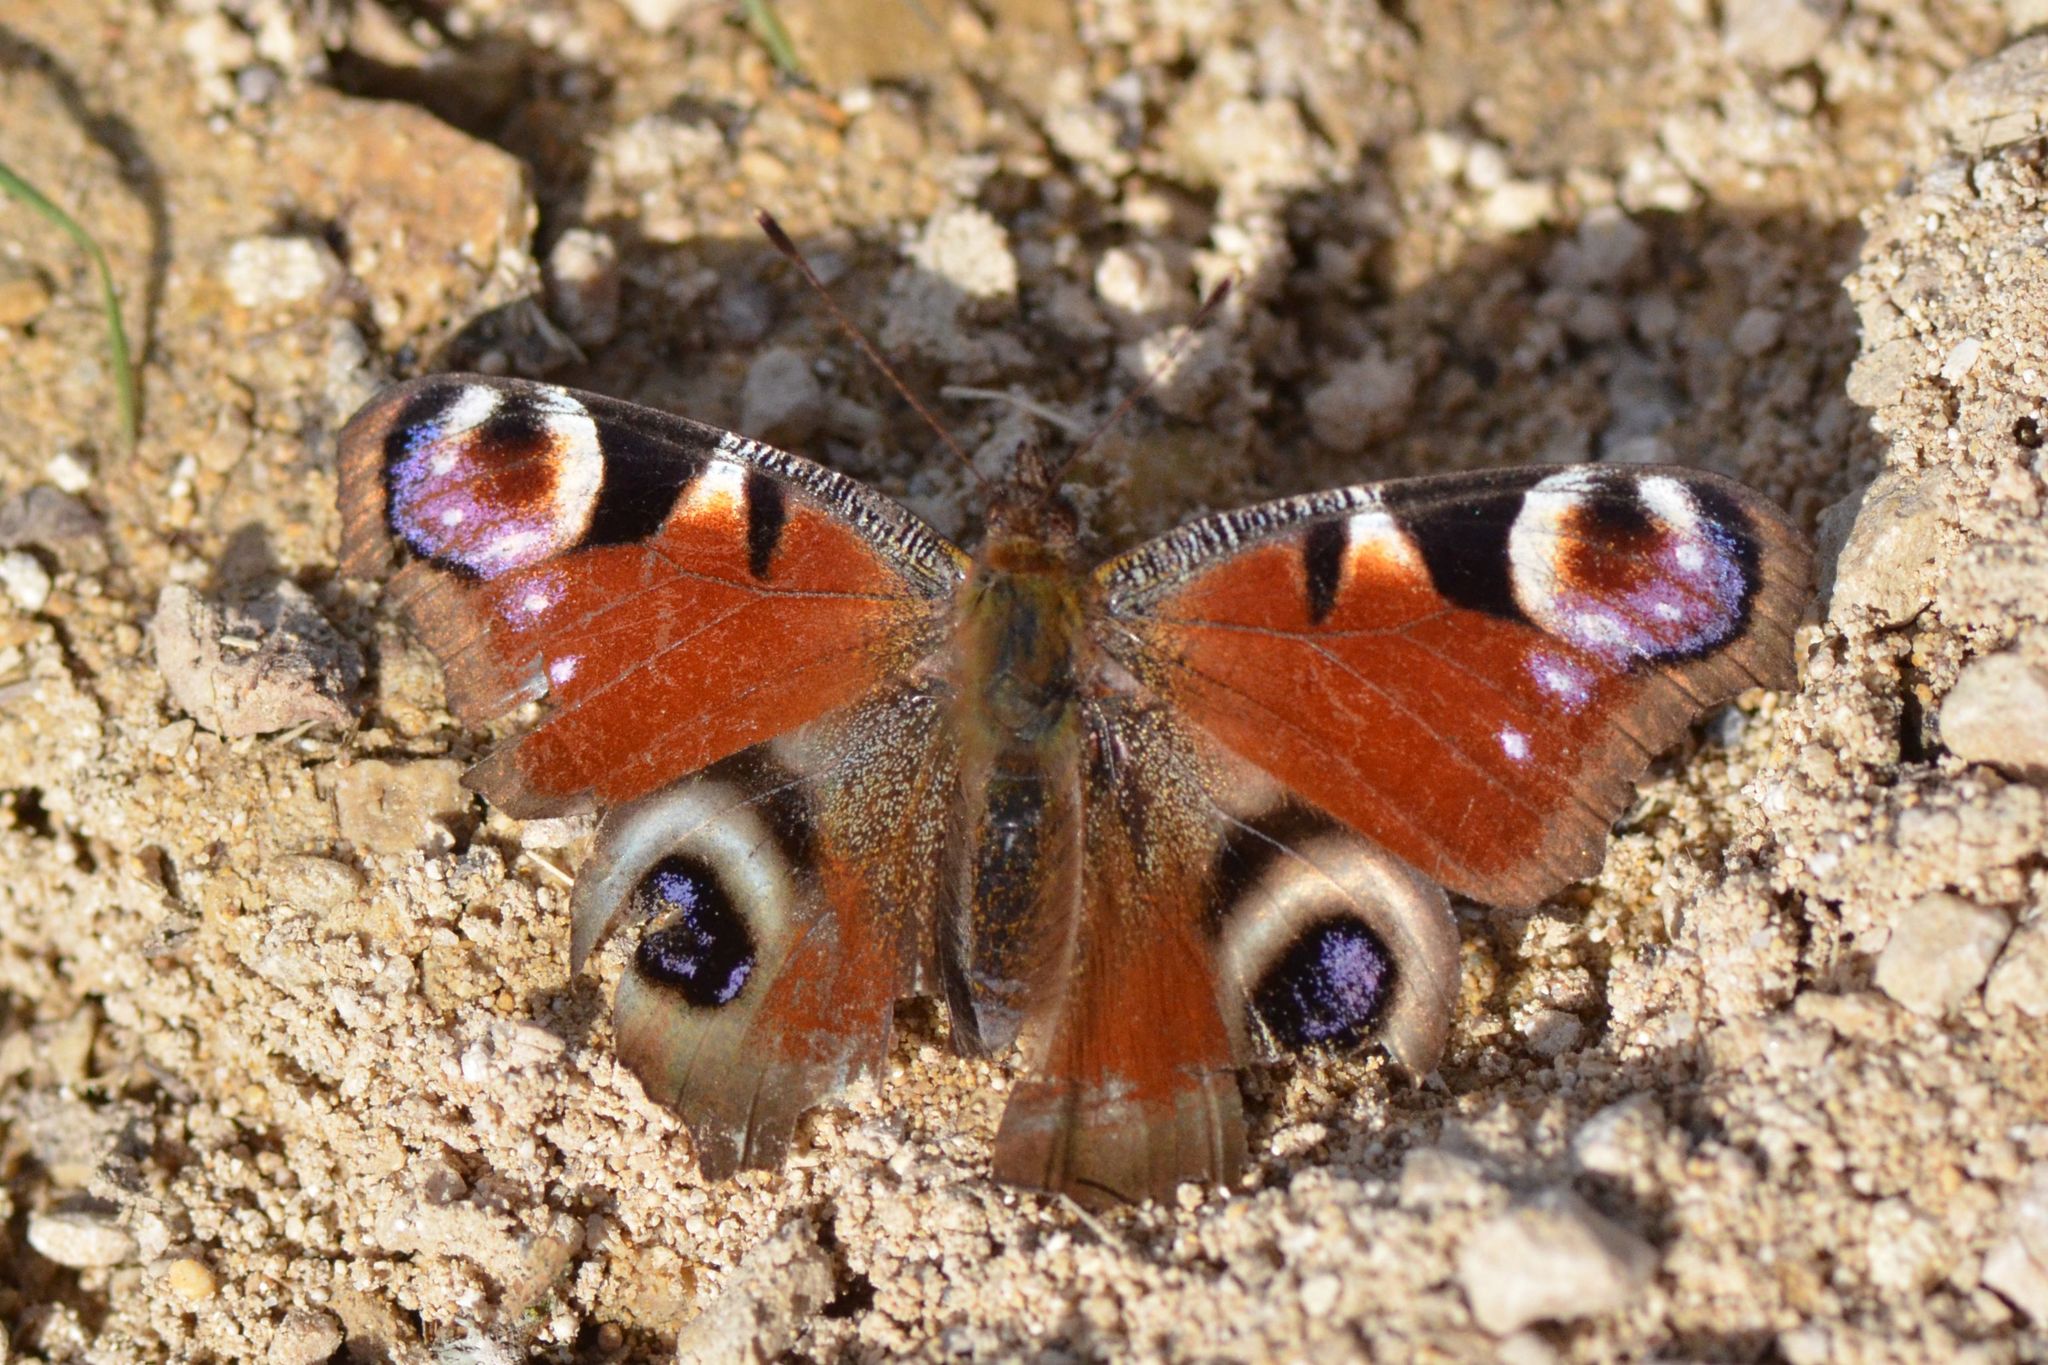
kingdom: Animalia
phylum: Arthropoda
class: Insecta
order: Lepidoptera
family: Nymphalidae
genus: Aglais
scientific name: Aglais io
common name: Peacock
